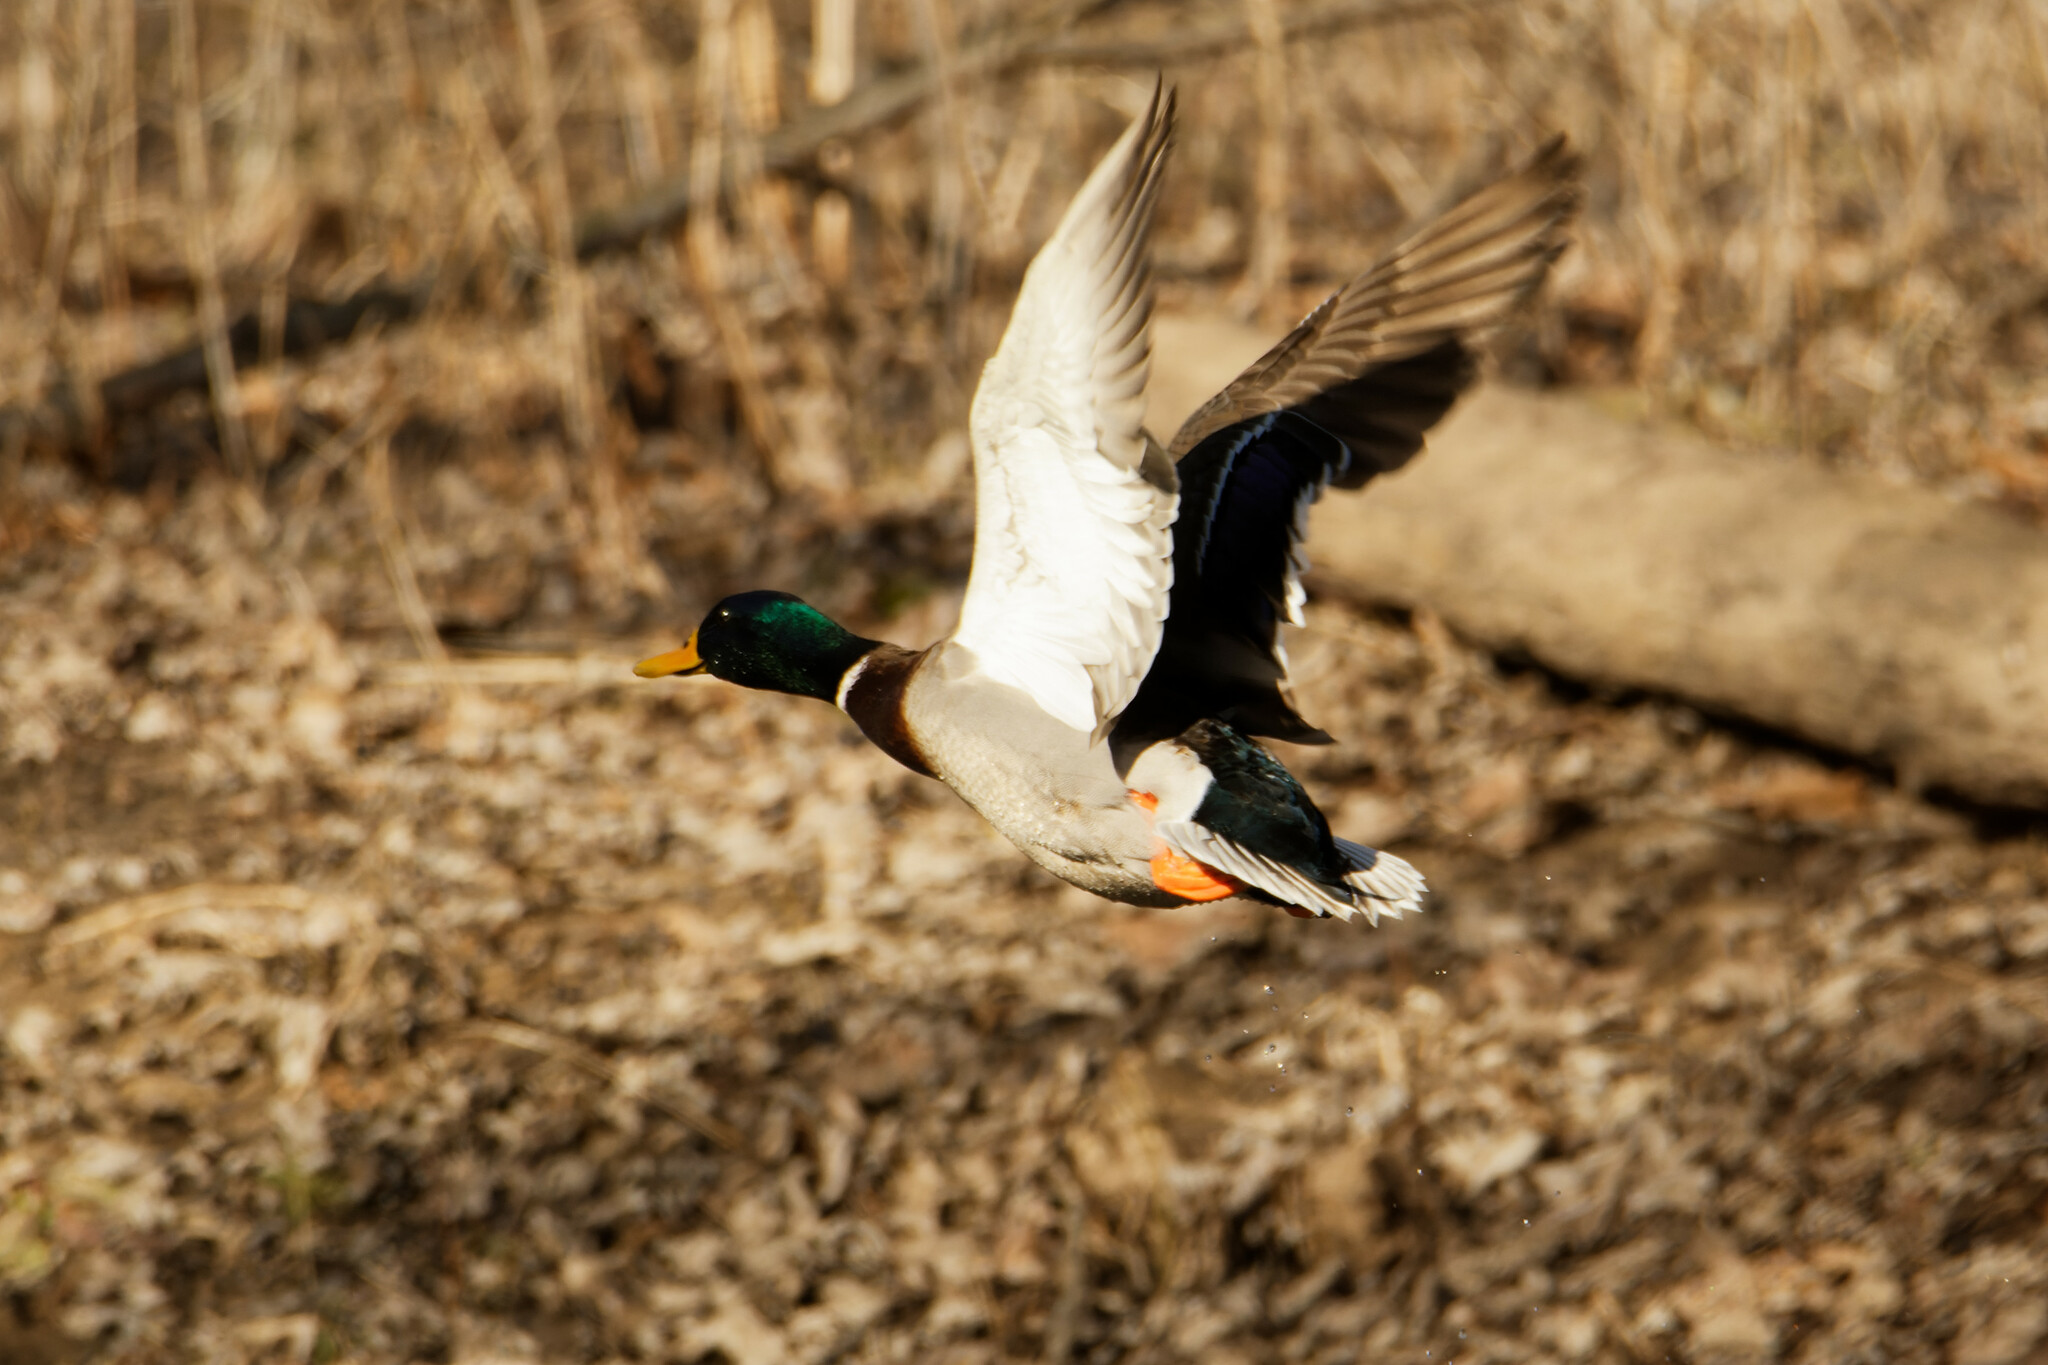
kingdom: Animalia
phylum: Chordata
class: Aves
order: Anseriformes
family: Anatidae
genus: Anas
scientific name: Anas platyrhynchos
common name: Mallard
